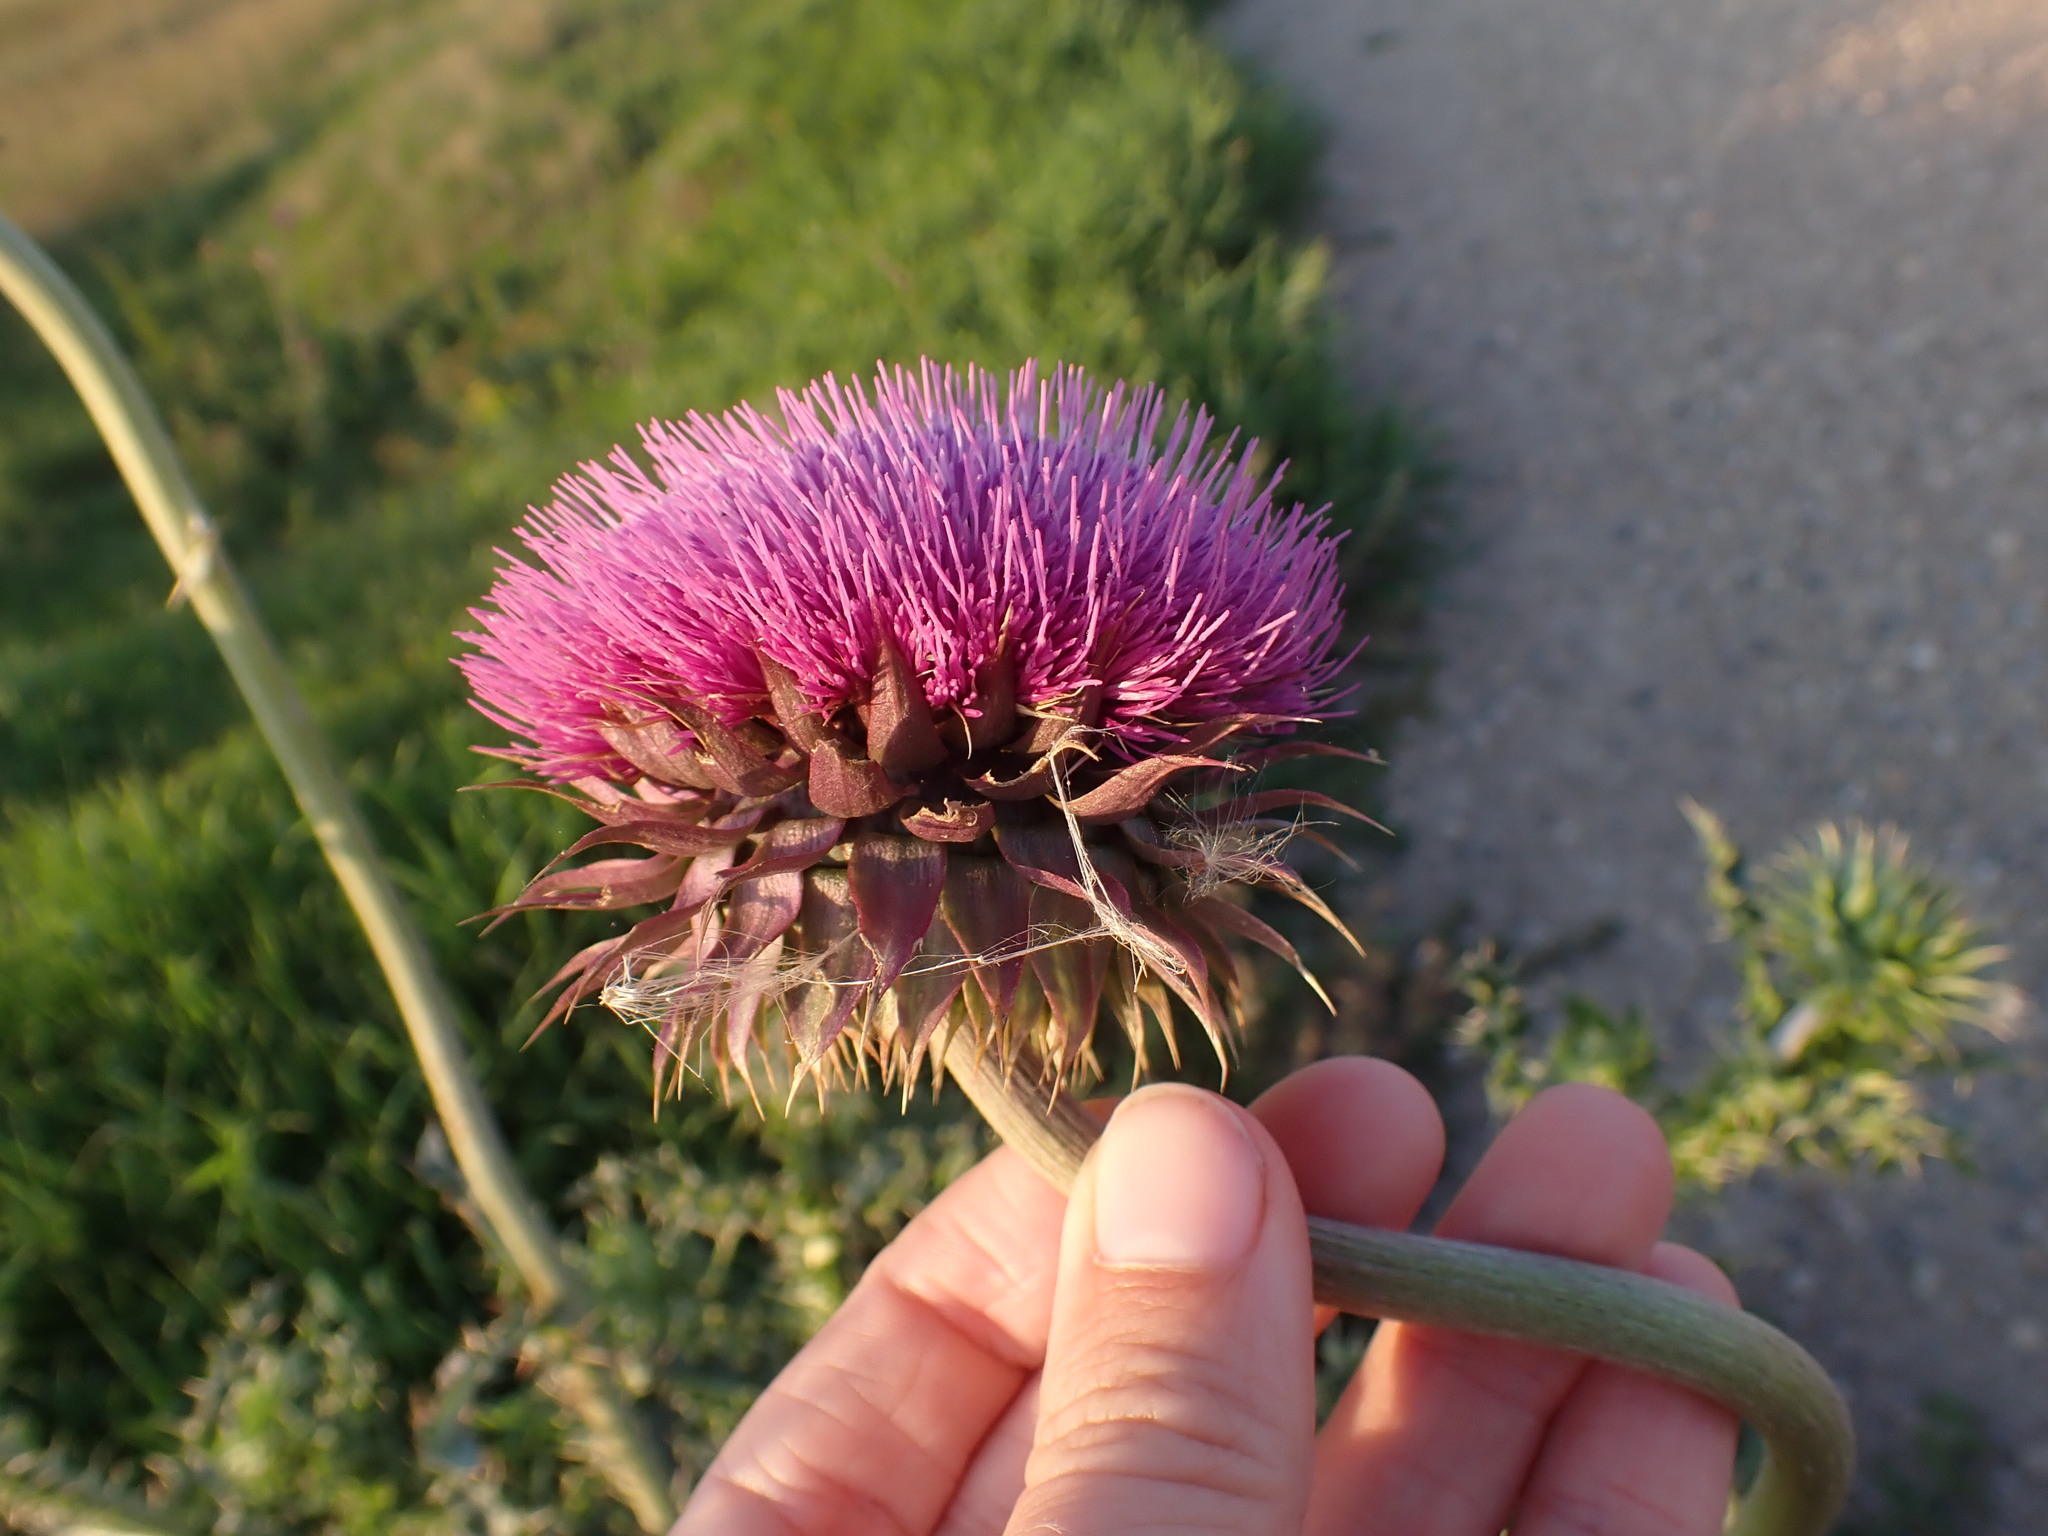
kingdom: Plantae
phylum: Tracheophyta
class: Magnoliopsida
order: Asterales
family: Asteraceae
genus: Carduus
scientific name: Carduus nutans
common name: Musk thistle
